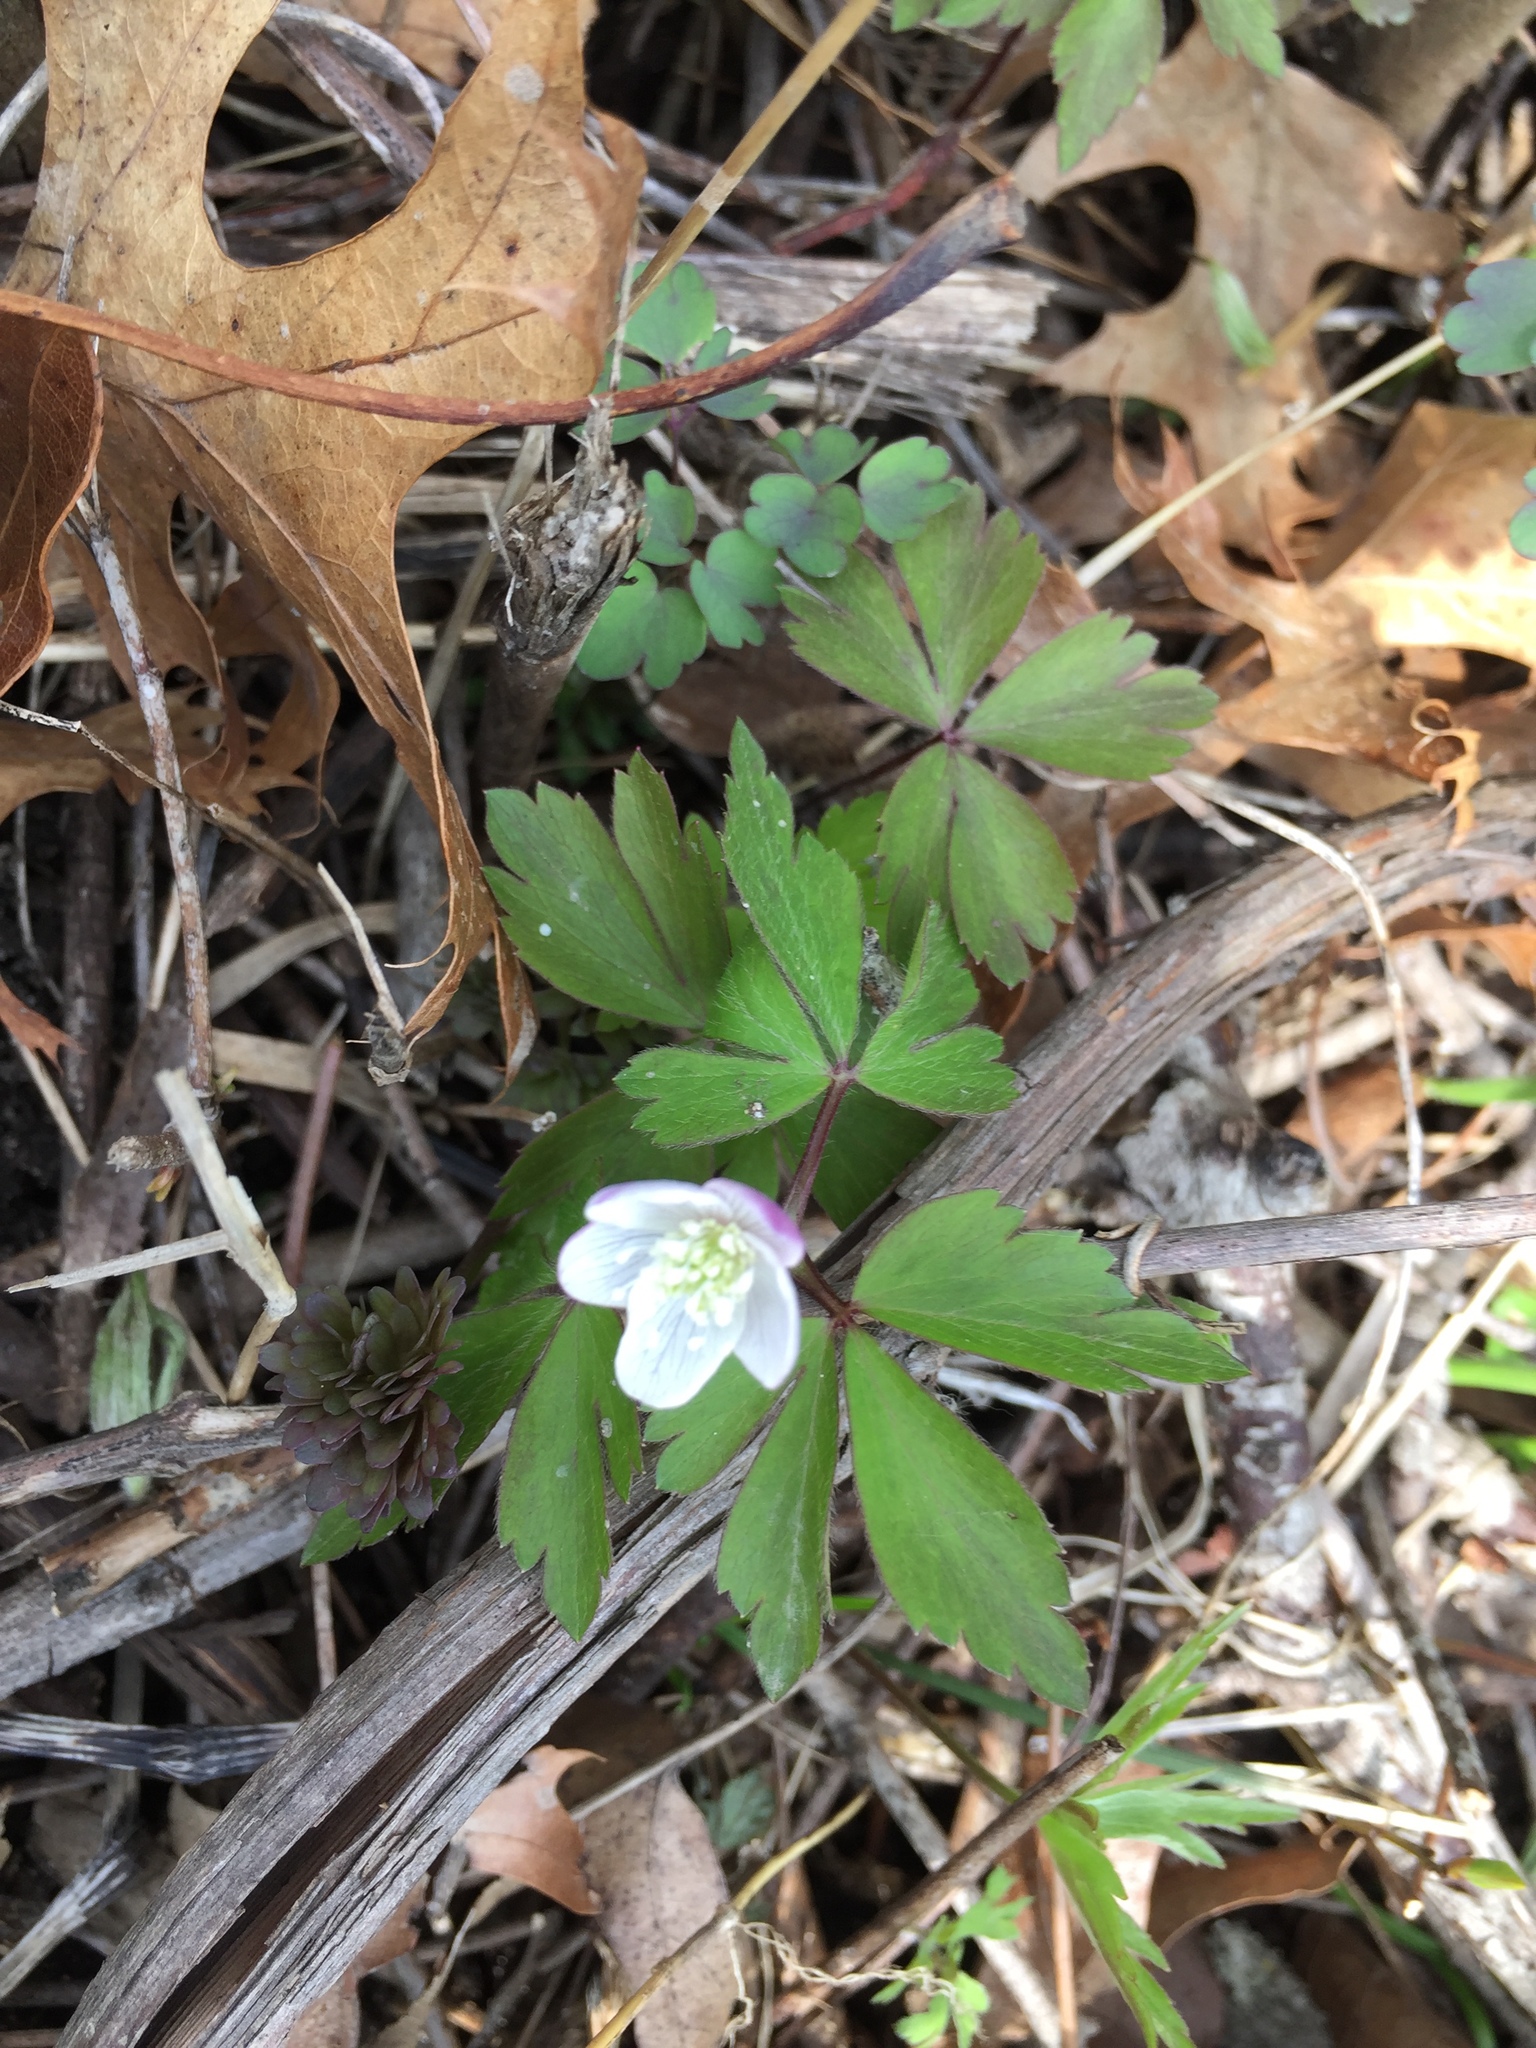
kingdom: Plantae
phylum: Tracheophyta
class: Magnoliopsida
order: Ranunculales
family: Ranunculaceae
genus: Anemone
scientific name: Anemone quinquefolia
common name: Wood anemone
